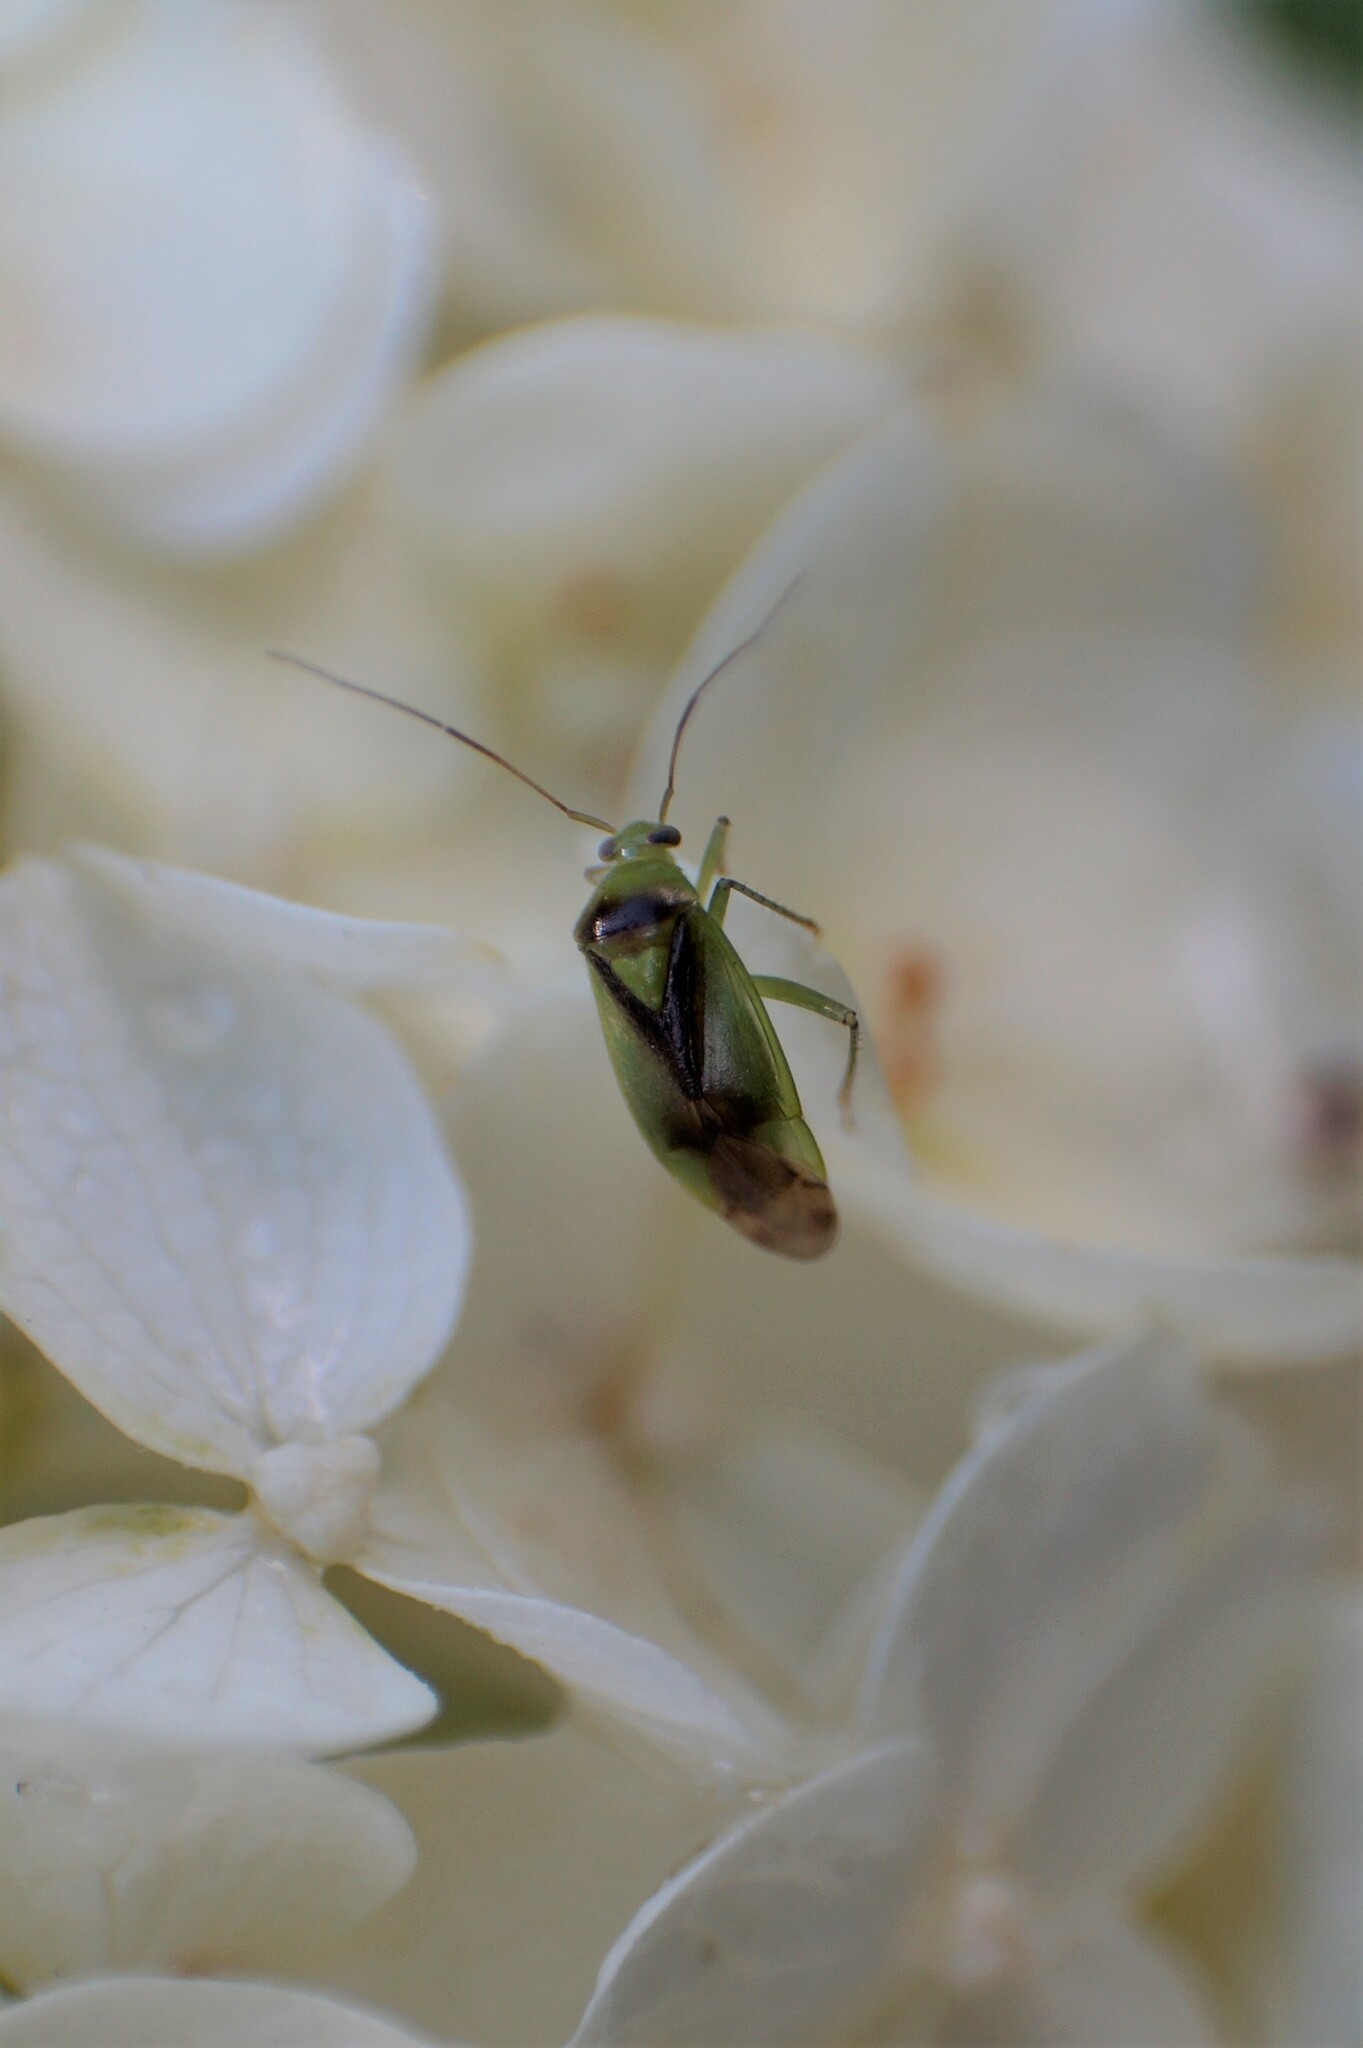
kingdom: Animalia
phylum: Arthropoda
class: Insecta
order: Hemiptera
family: Miridae
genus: Orthops
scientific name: Orthops campestris
